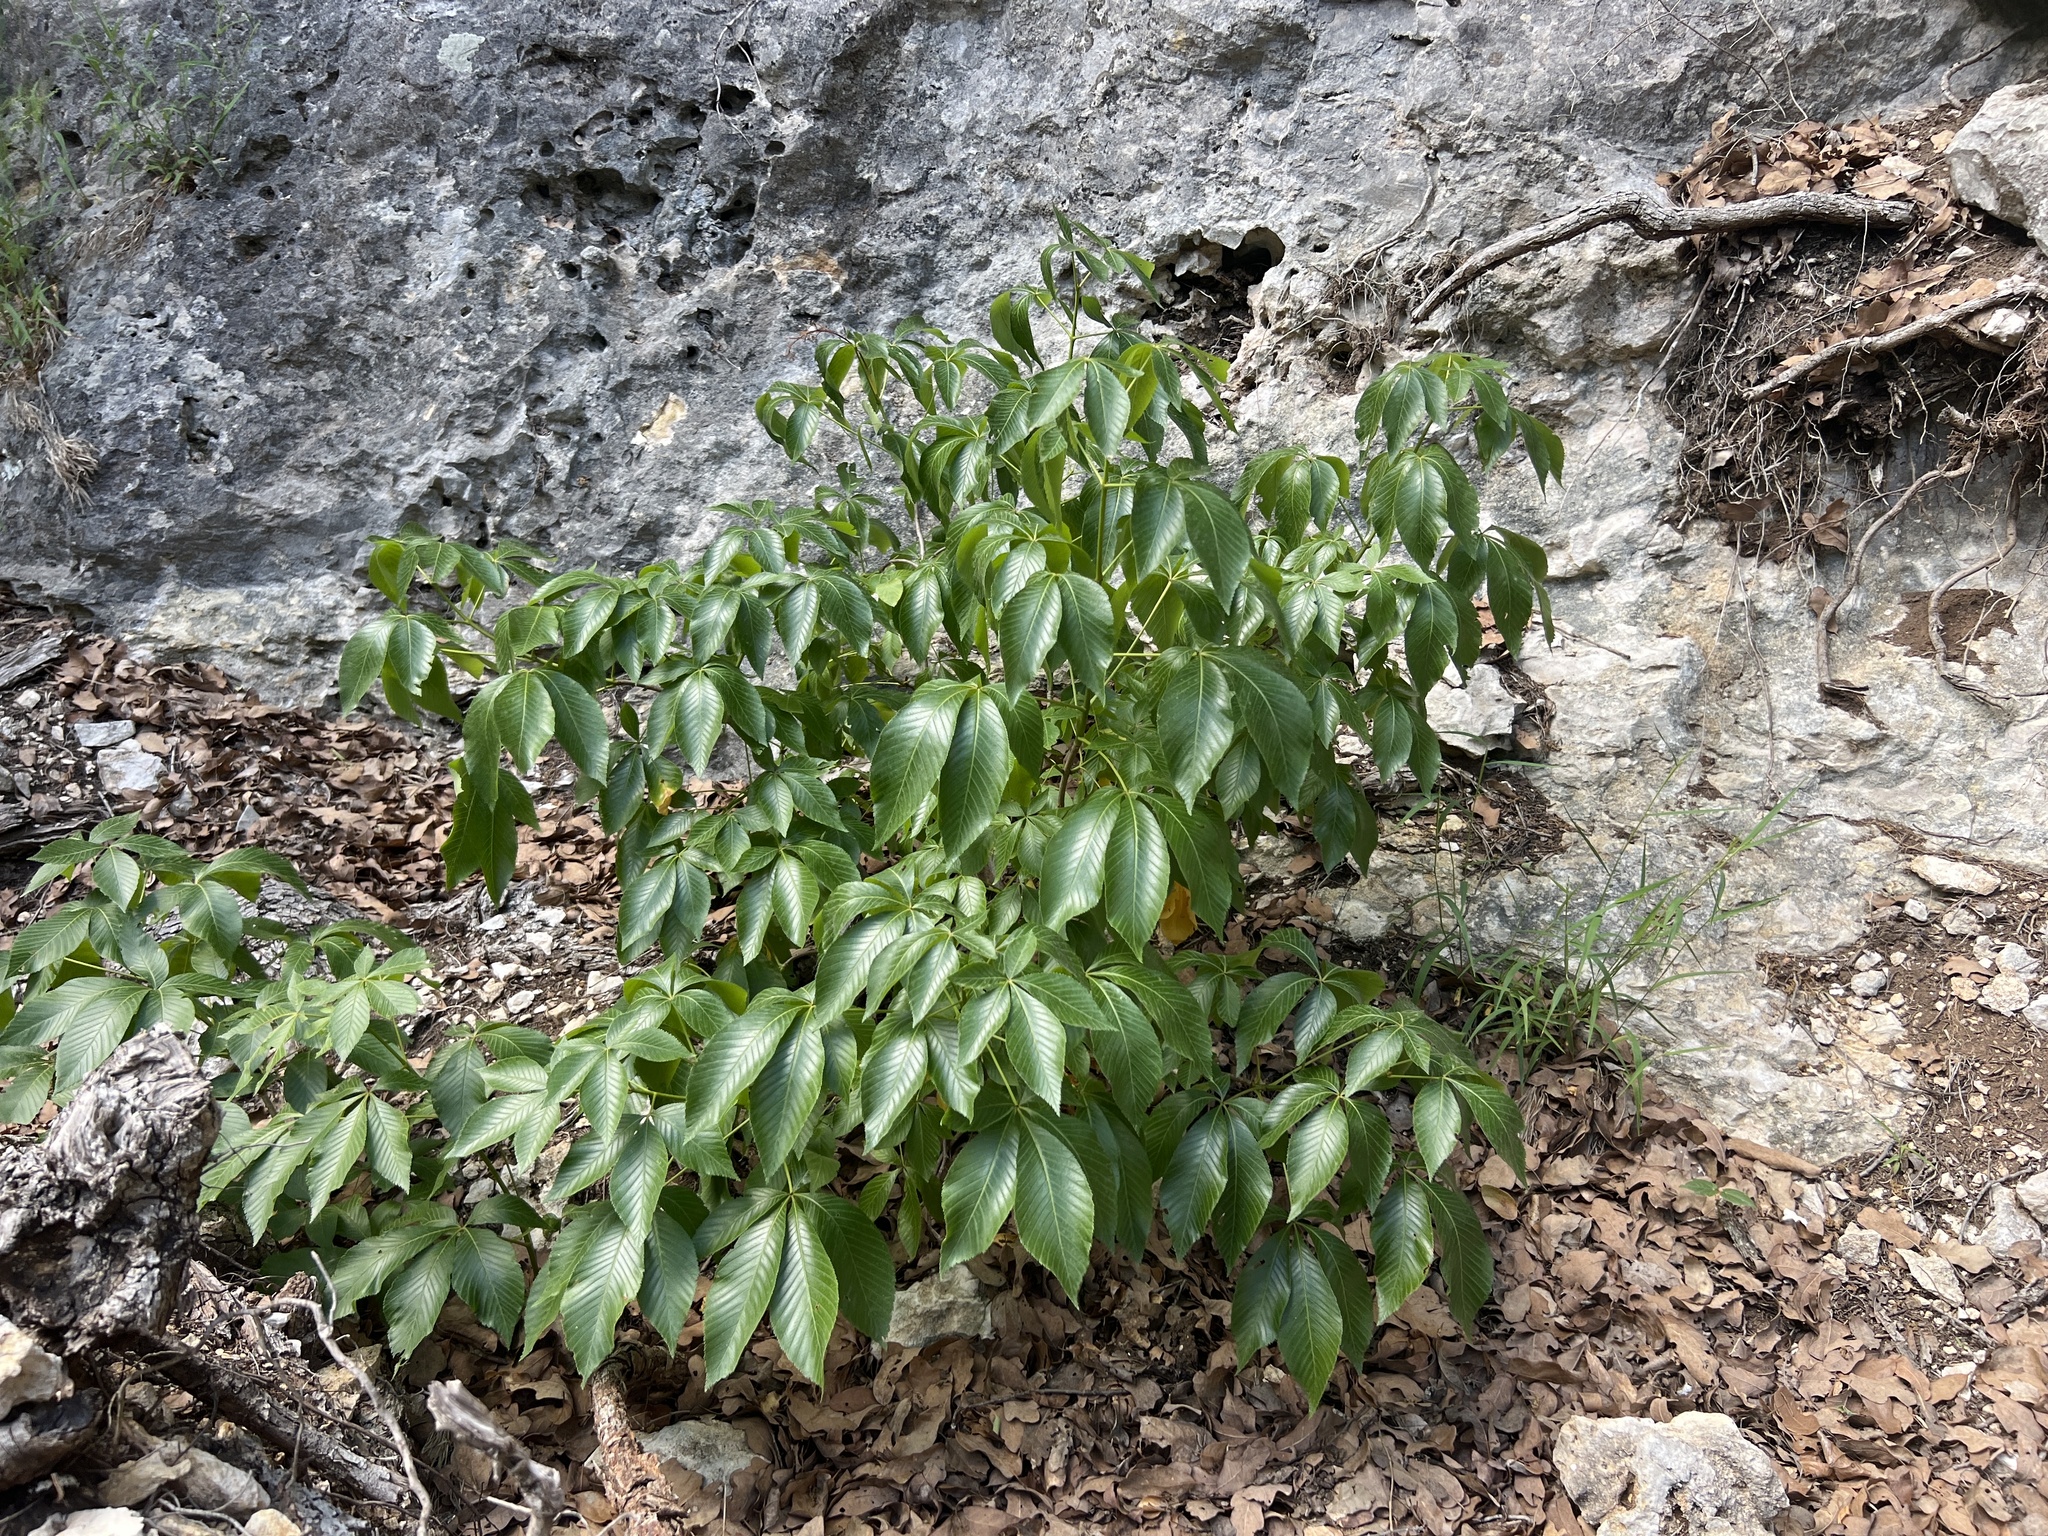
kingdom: Plantae
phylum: Tracheophyta
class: Magnoliopsida
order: Sapindales
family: Sapindaceae
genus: Aesculus
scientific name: Aesculus pavia
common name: Red buckeye
